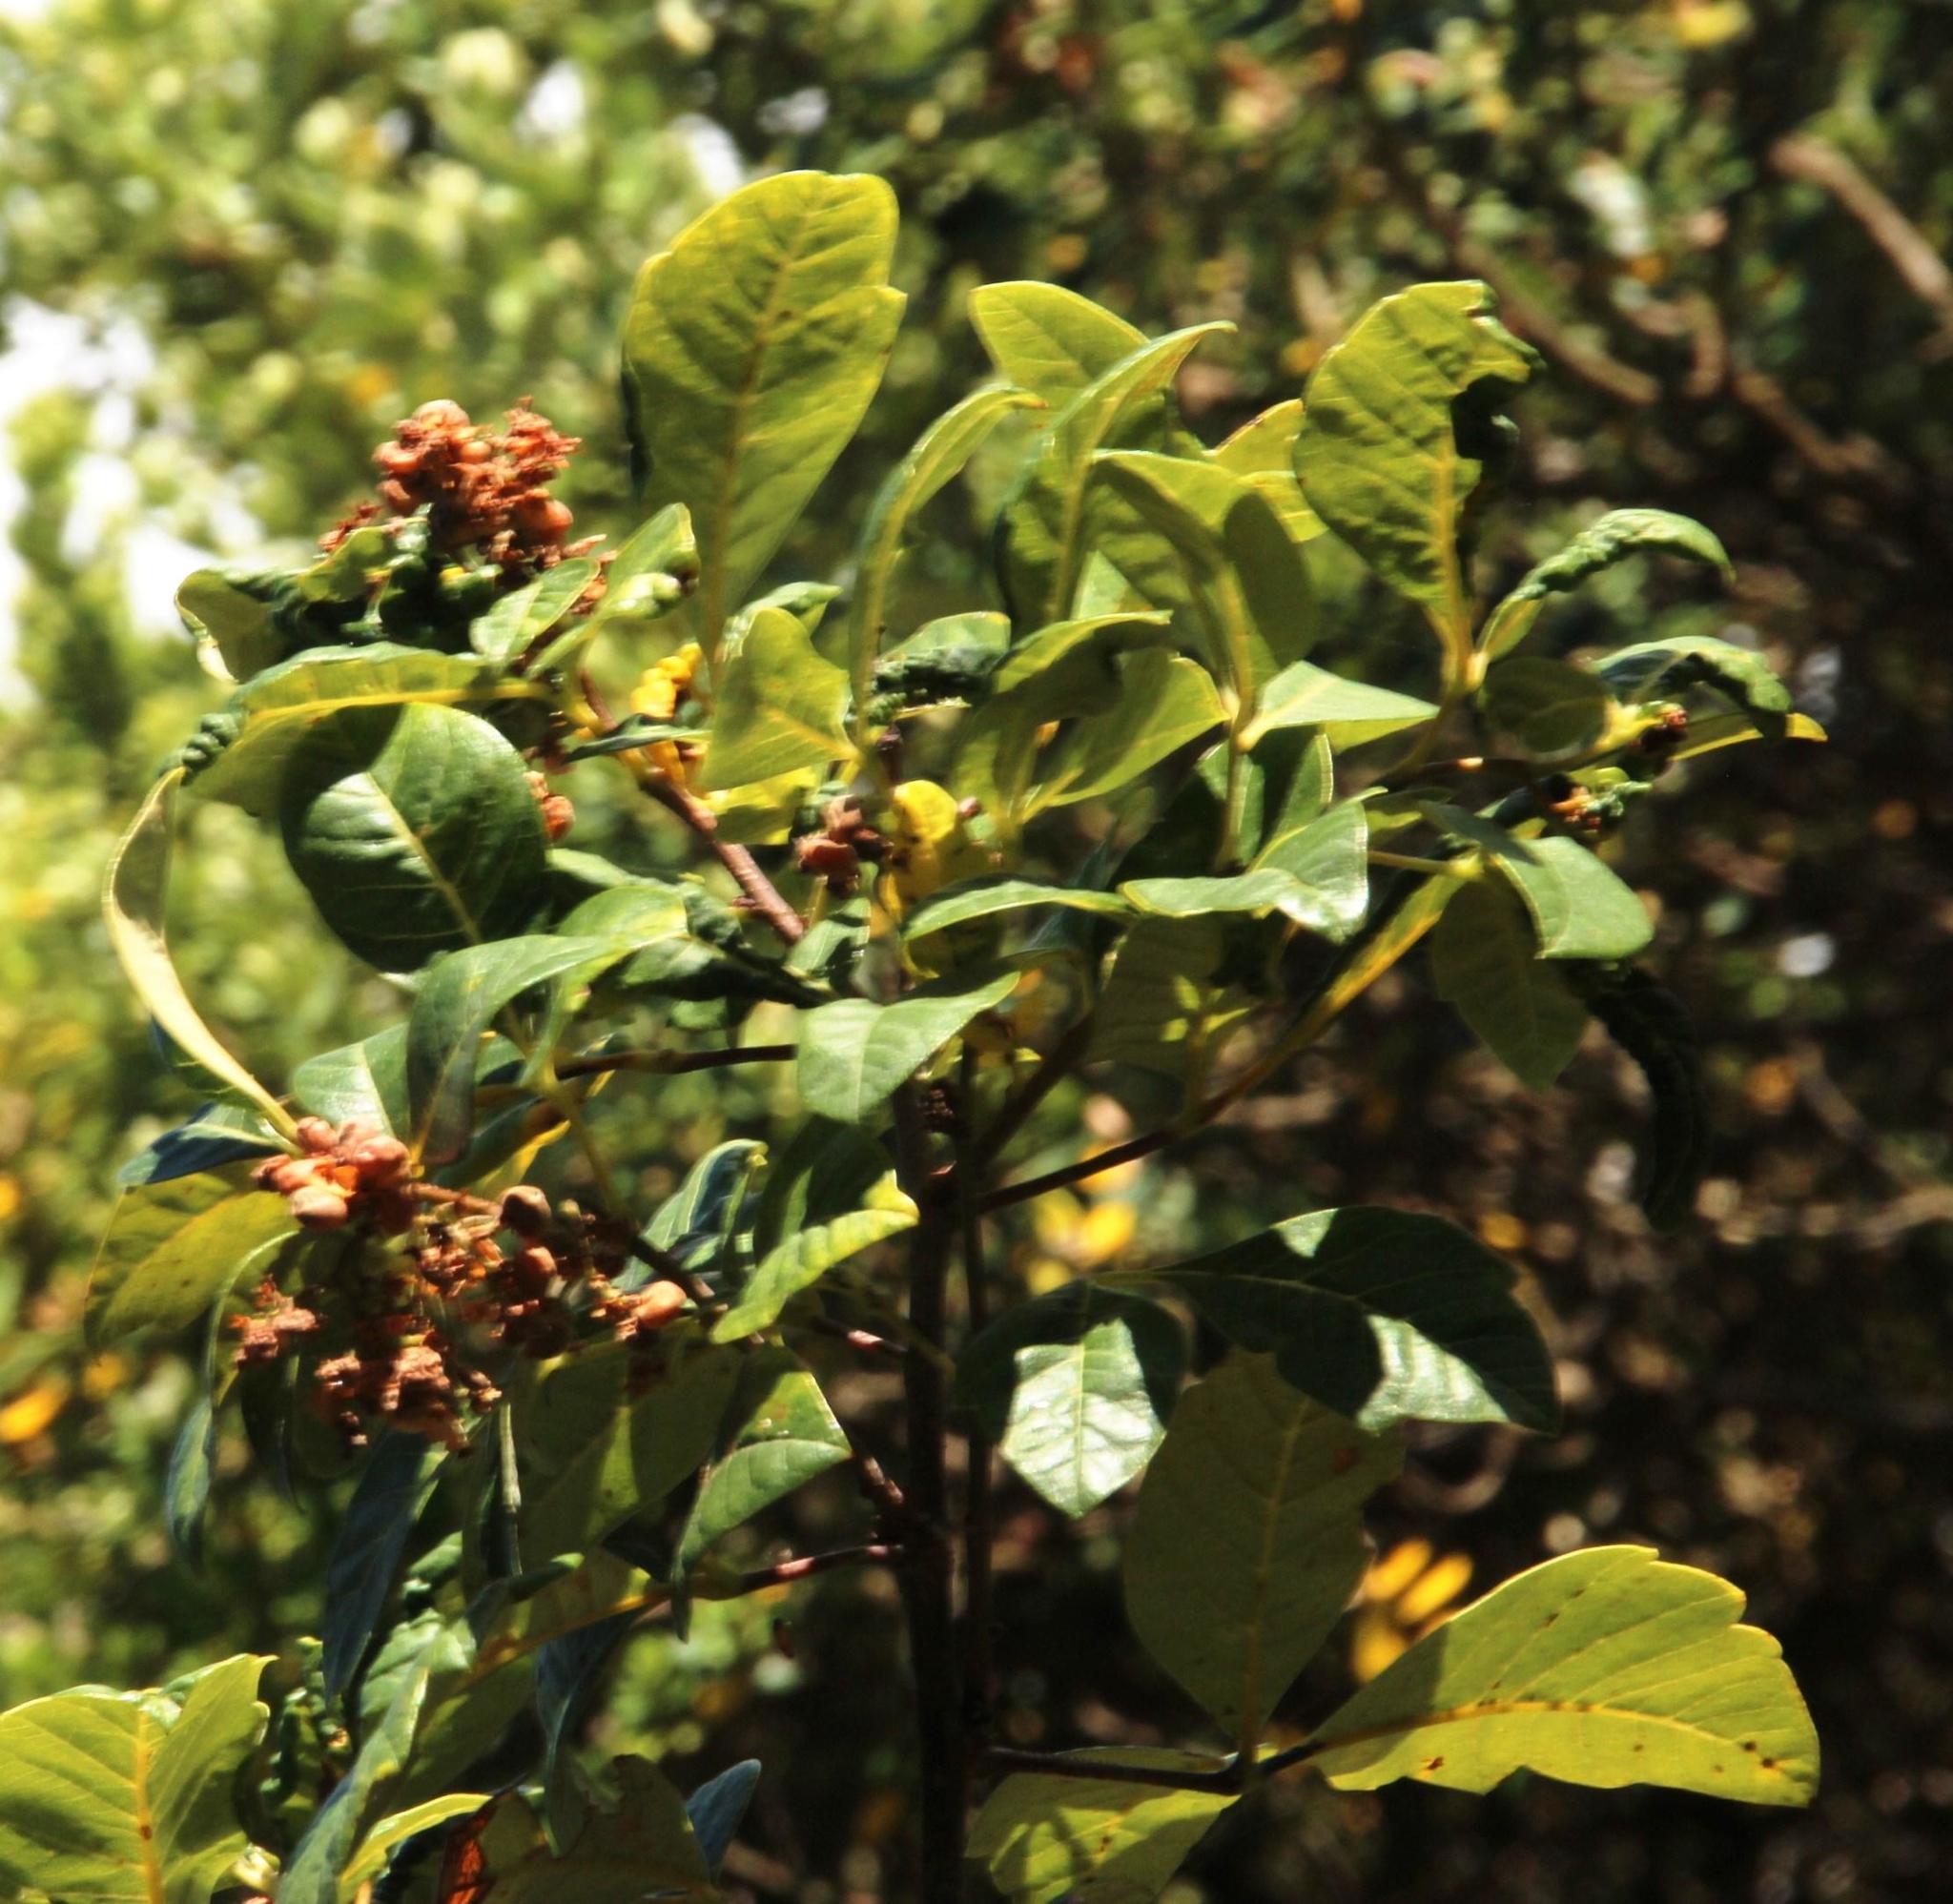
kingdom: Plantae
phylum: Tracheophyta
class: Magnoliopsida
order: Sapindales
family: Anacardiaceae
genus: Searsia
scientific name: Searsia tomentosa
